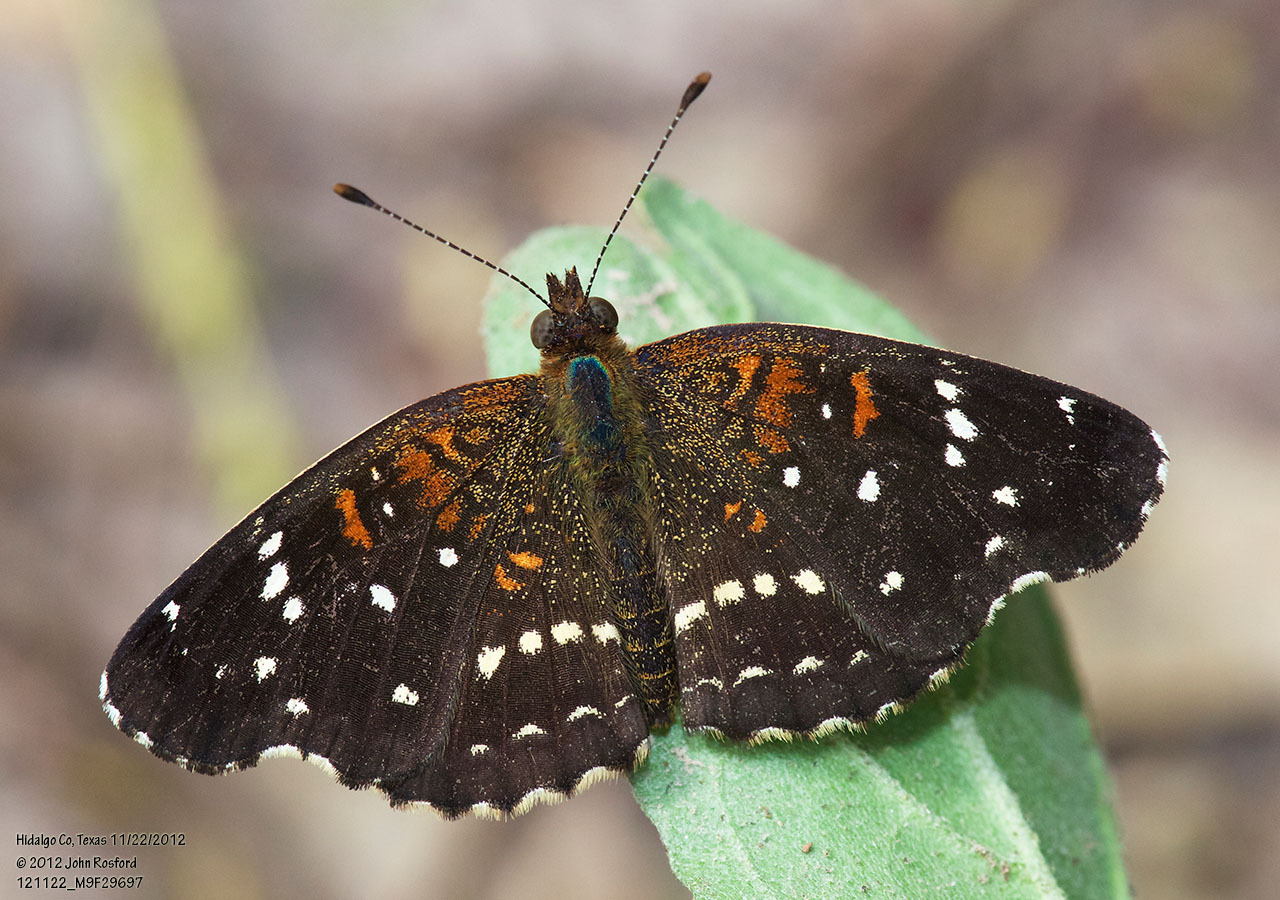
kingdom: Animalia
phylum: Arthropoda
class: Insecta
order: Lepidoptera
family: Nymphalidae
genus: Anthanassa
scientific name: Anthanassa texana
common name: Texan crescent
